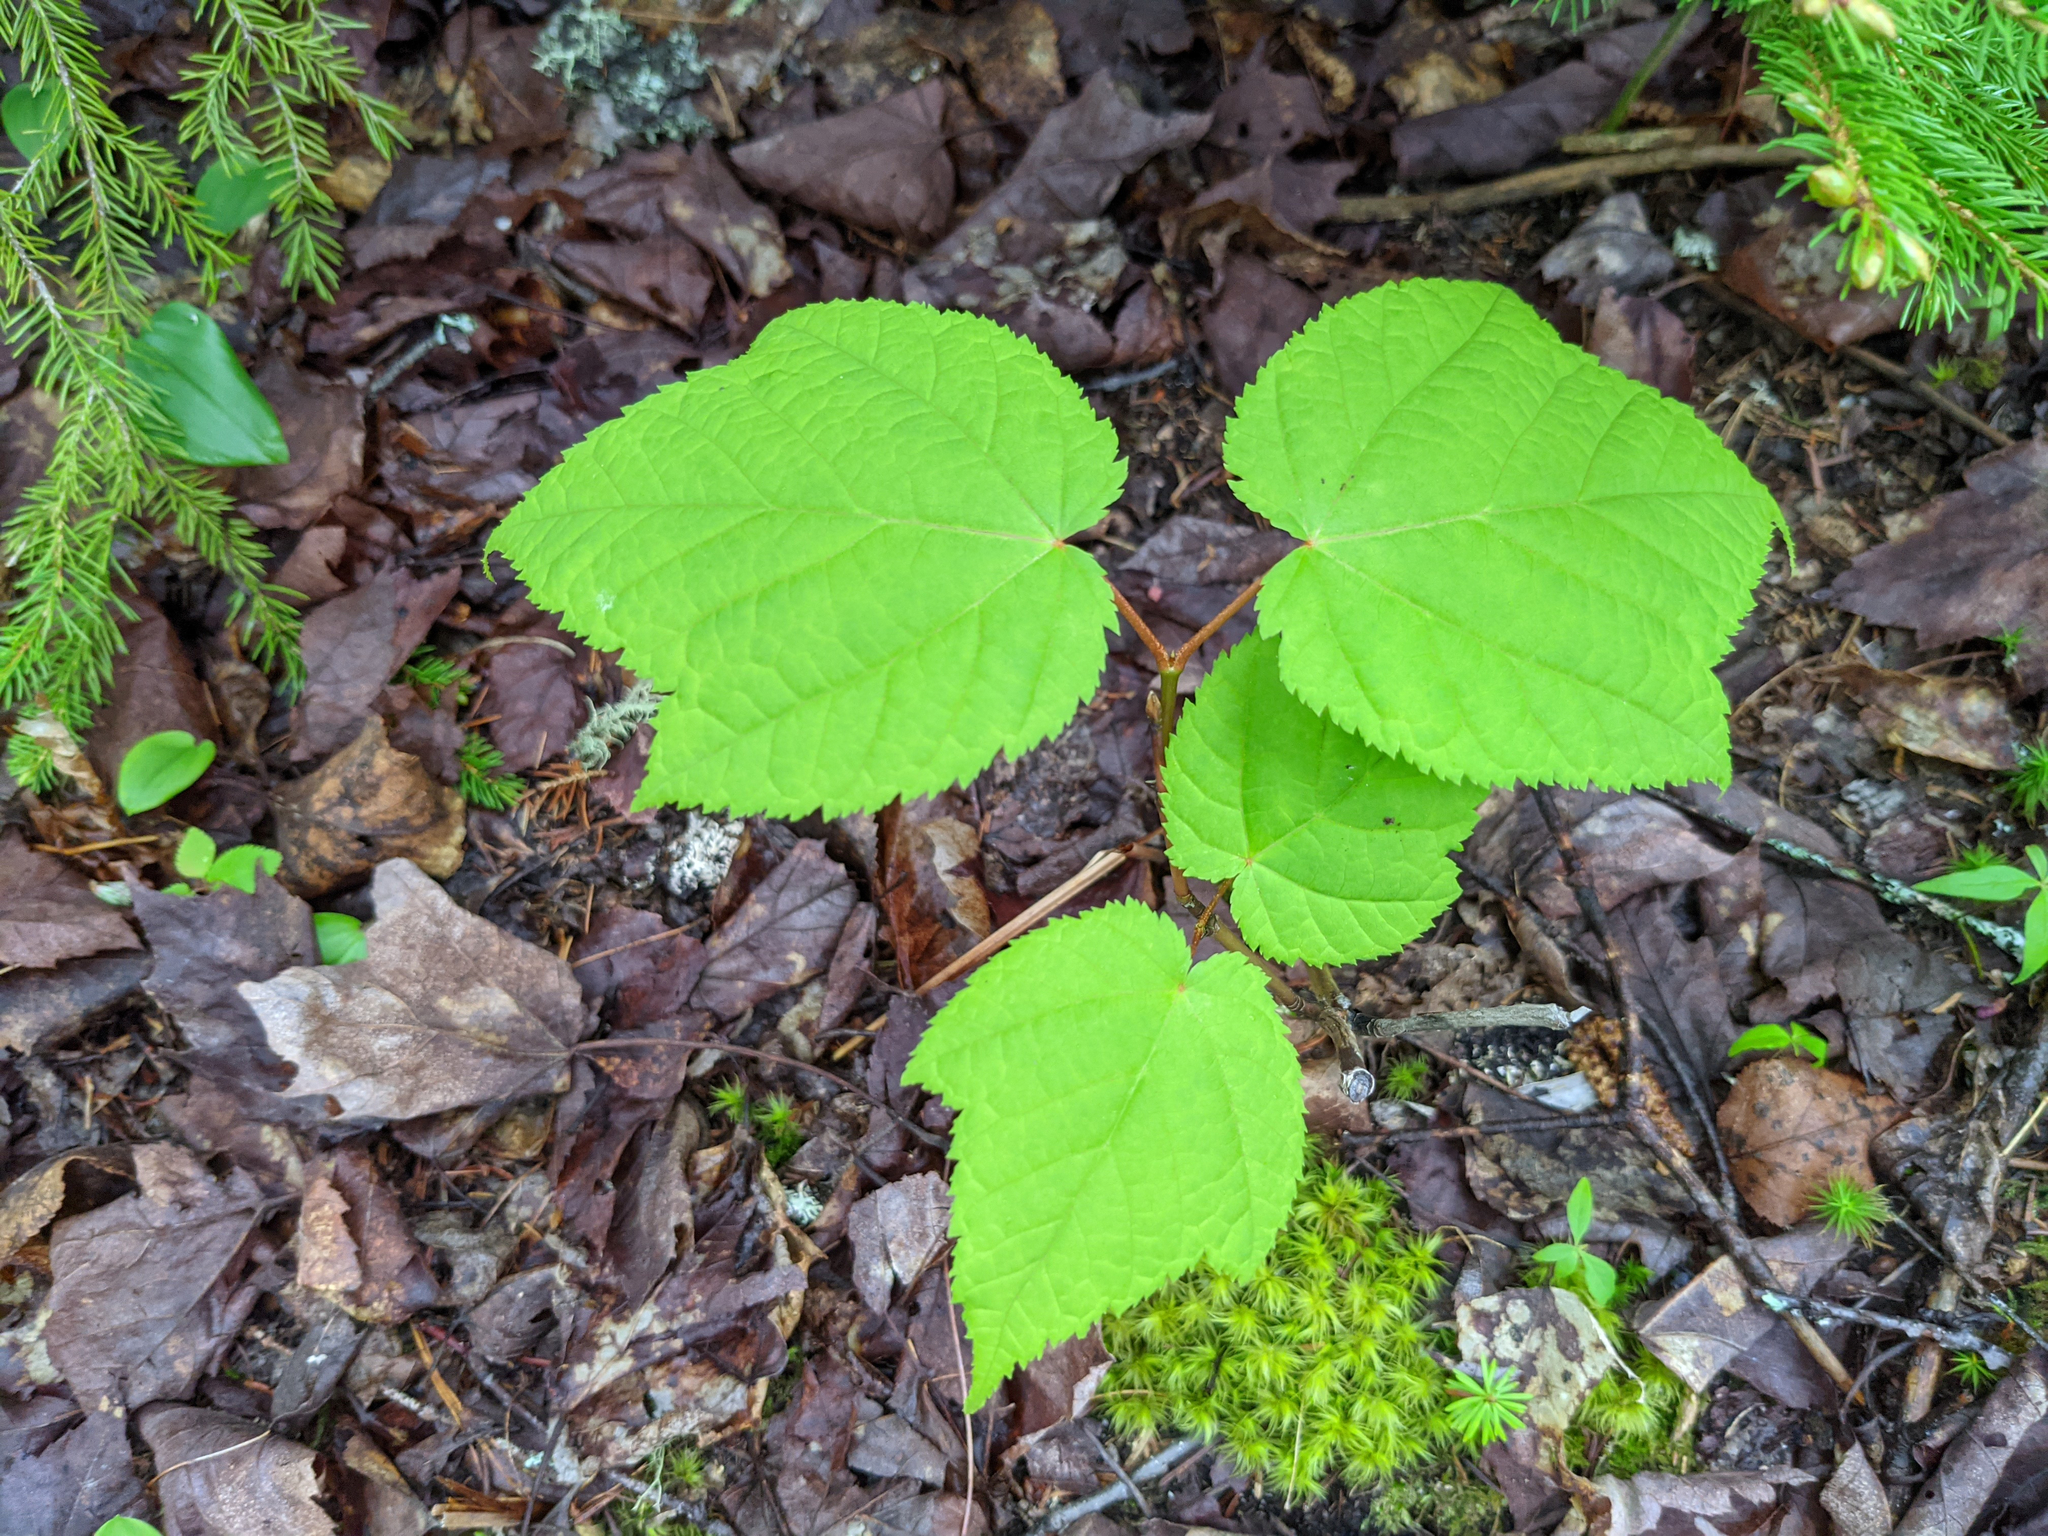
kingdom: Plantae
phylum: Tracheophyta
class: Magnoliopsida
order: Sapindales
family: Sapindaceae
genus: Acer
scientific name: Acer pensylvanicum
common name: Moosewood
